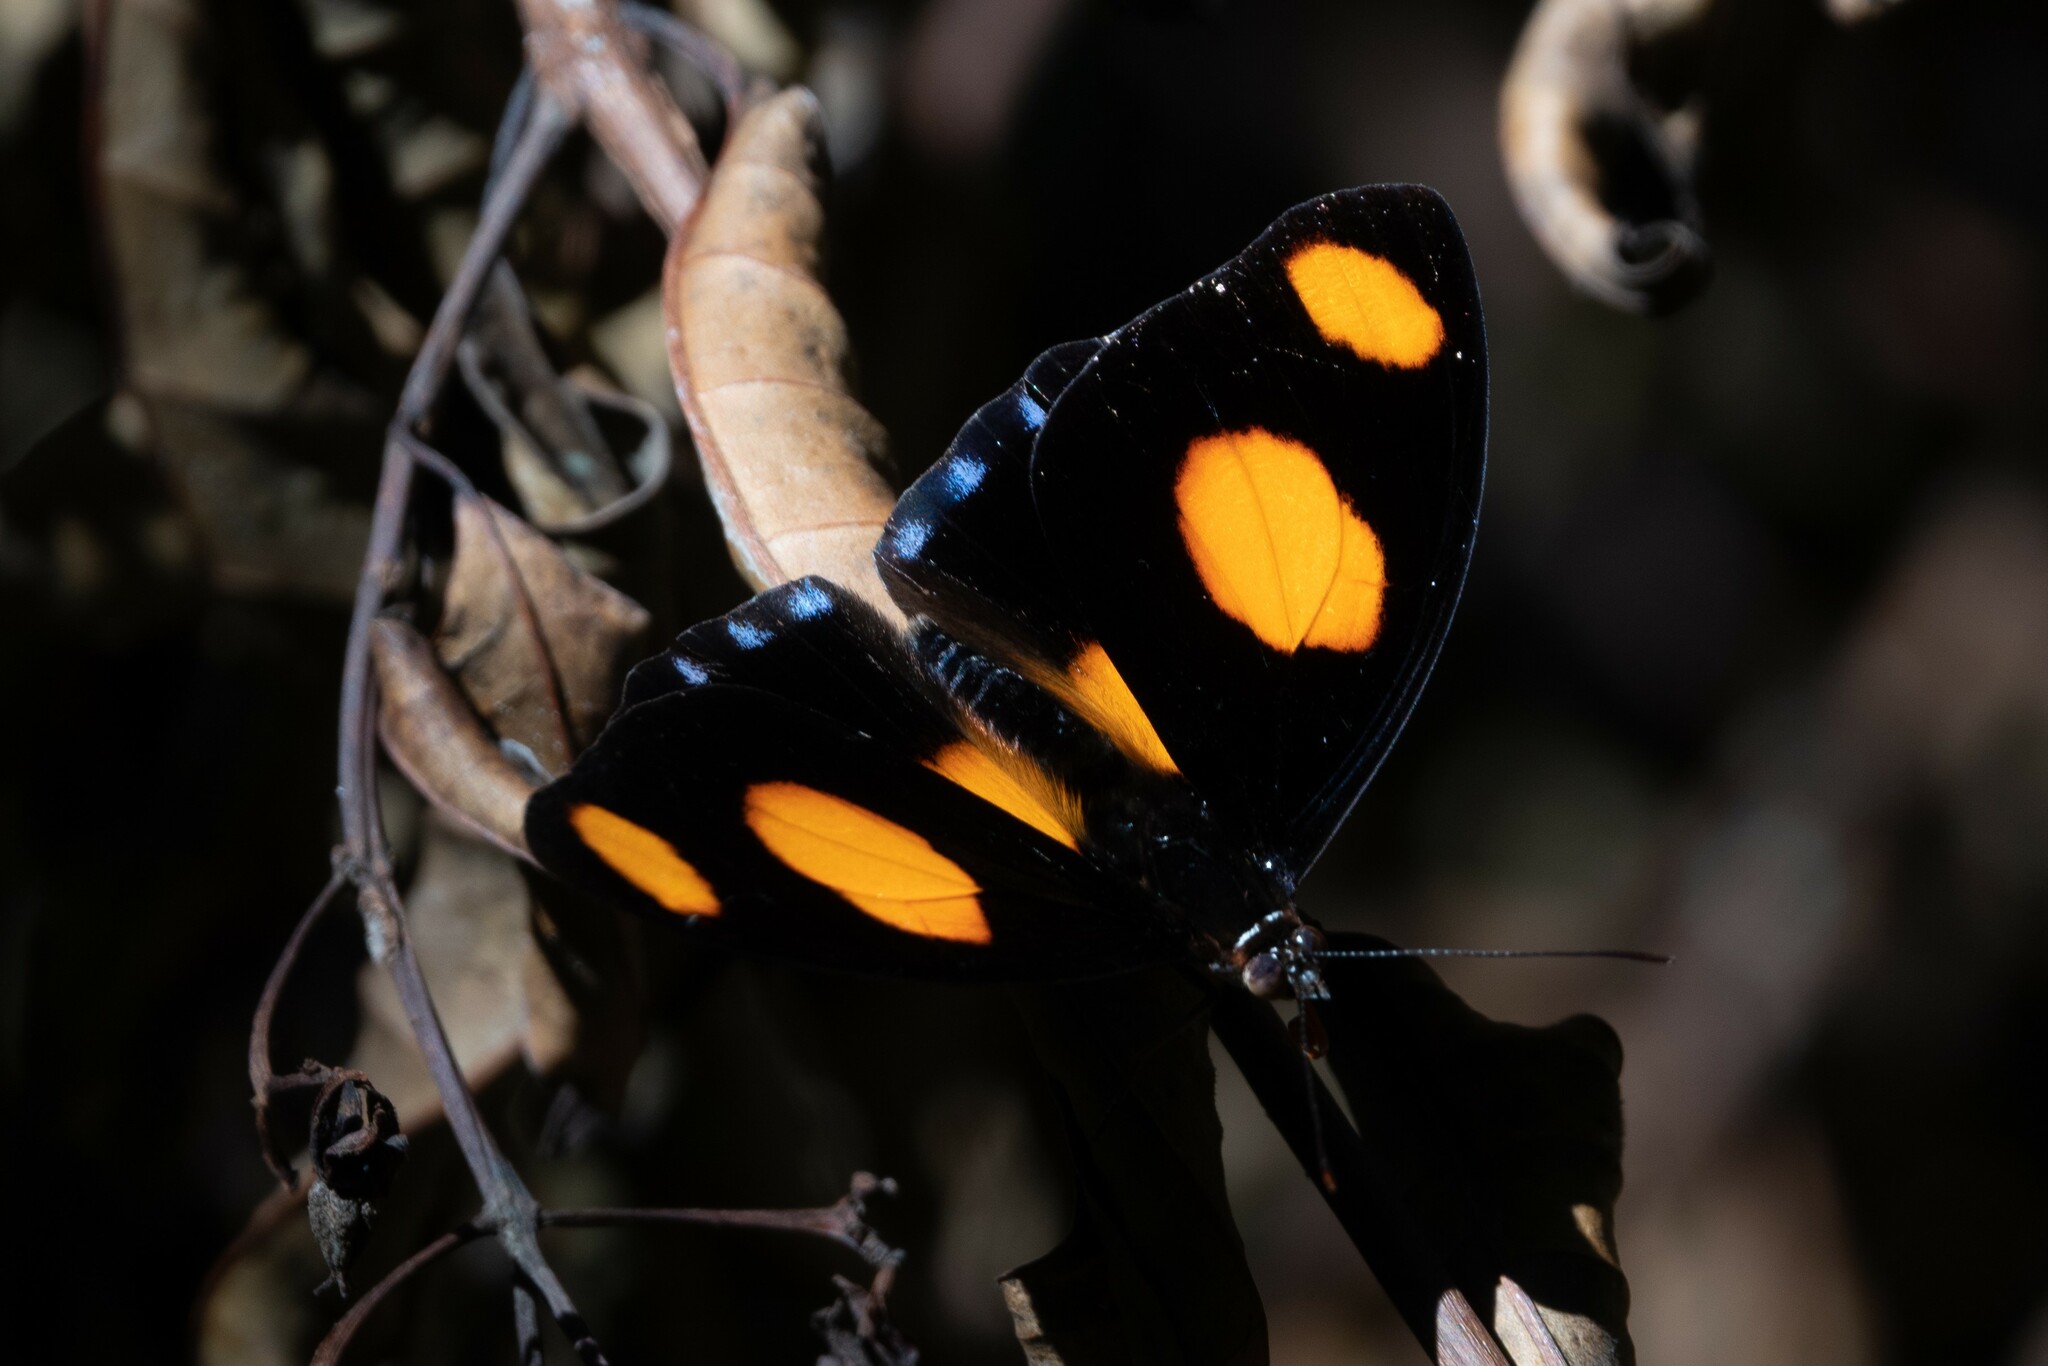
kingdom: Animalia
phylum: Arthropoda
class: Insecta
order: Lepidoptera
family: Nymphalidae
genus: Catonephele
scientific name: Catonephele numilia
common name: Blue-frosted banner
